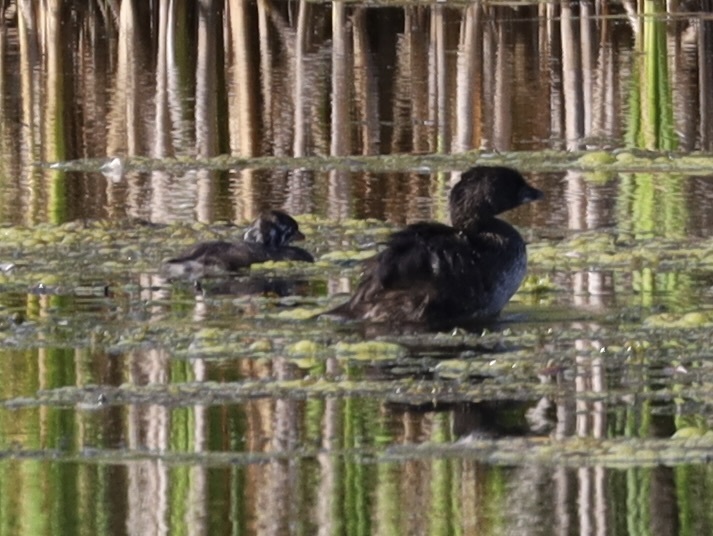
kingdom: Animalia
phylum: Chordata
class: Aves
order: Podicipediformes
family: Podicipedidae
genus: Podilymbus
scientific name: Podilymbus podiceps
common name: Pied-billed grebe
